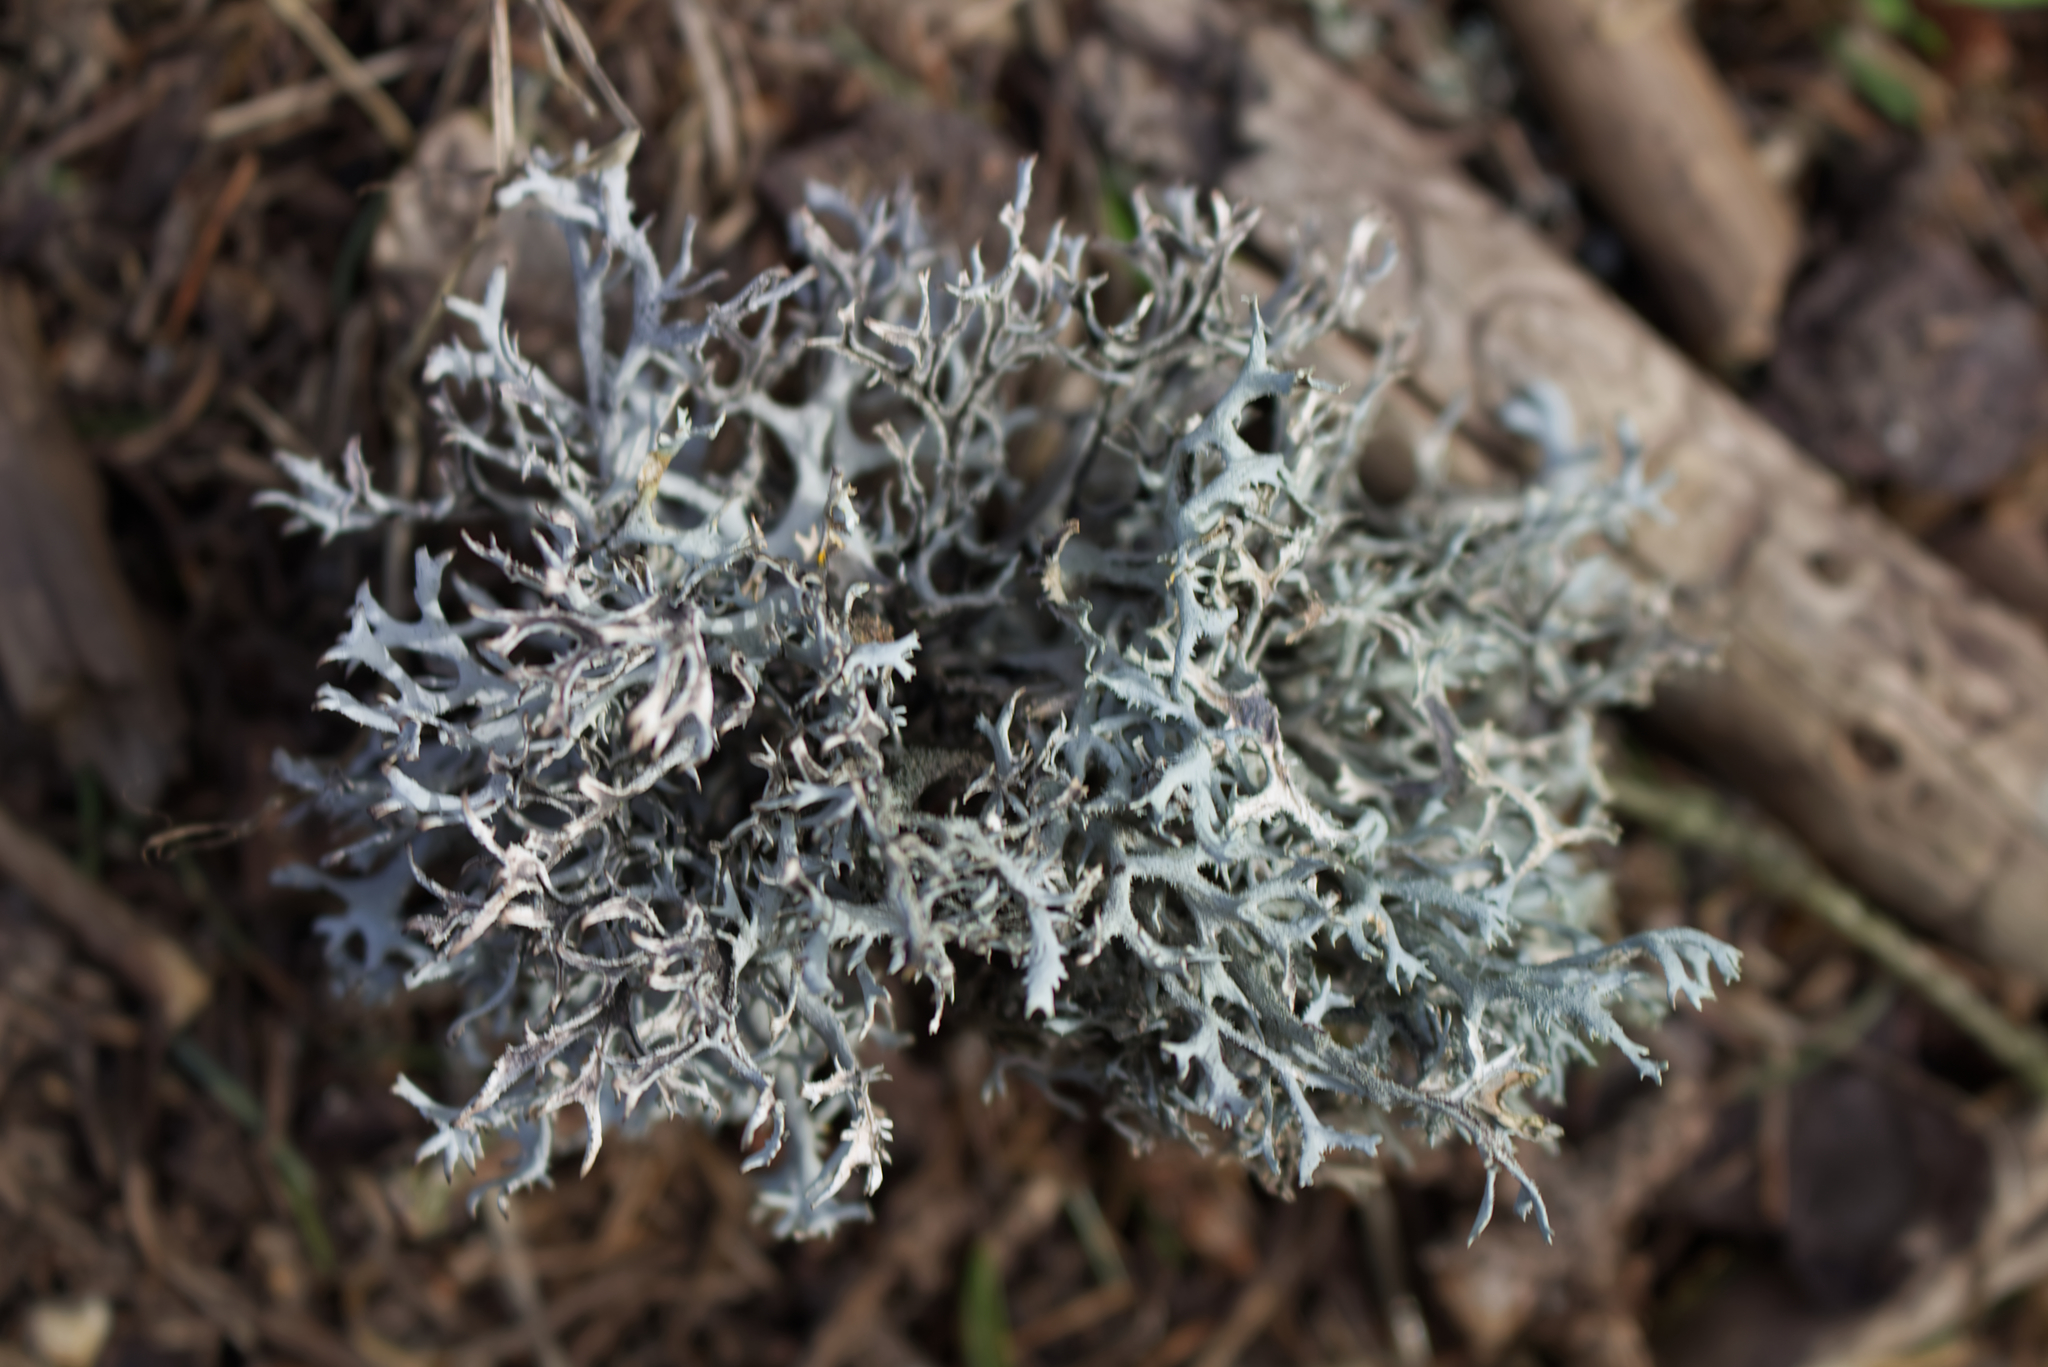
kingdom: Fungi
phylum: Ascomycota
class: Lecanoromycetes
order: Lecanorales
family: Parmeliaceae
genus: Pseudevernia
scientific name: Pseudevernia furfuracea
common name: Tree moss
